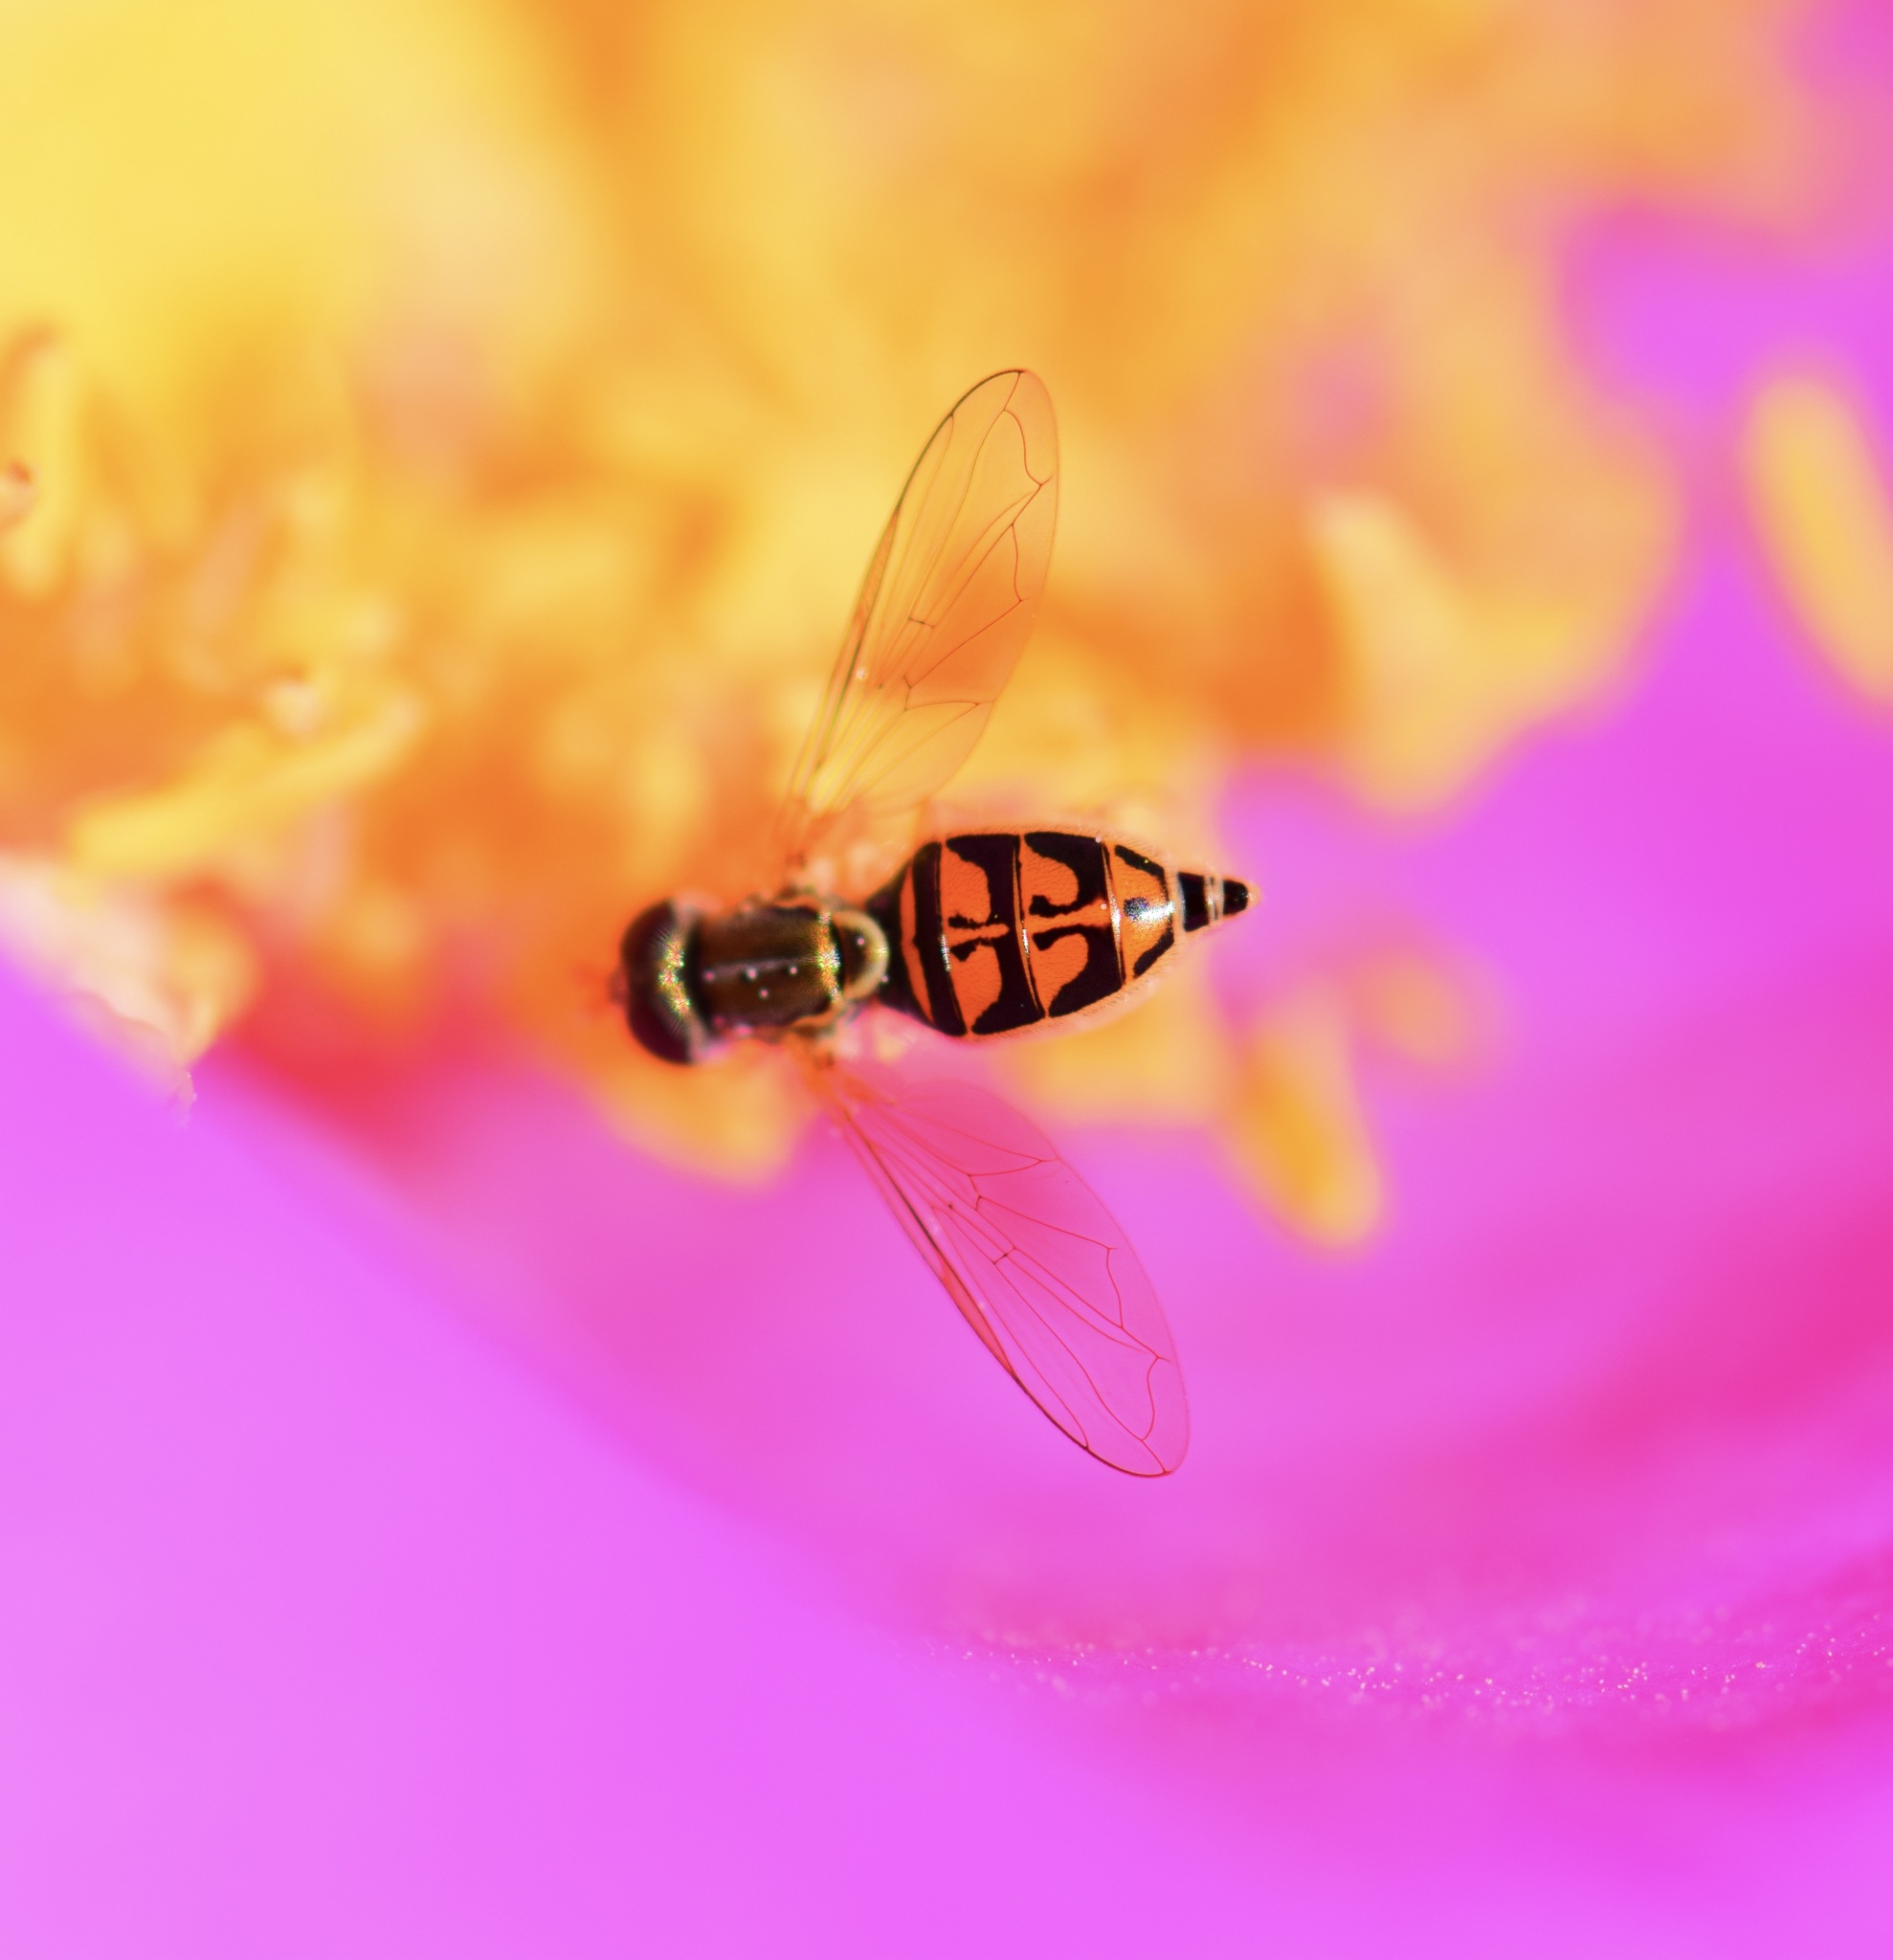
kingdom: Animalia
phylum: Arthropoda
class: Insecta
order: Diptera
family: Syrphidae
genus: Toxomerus
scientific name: Toxomerus marginatus
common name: Syrphid fly
